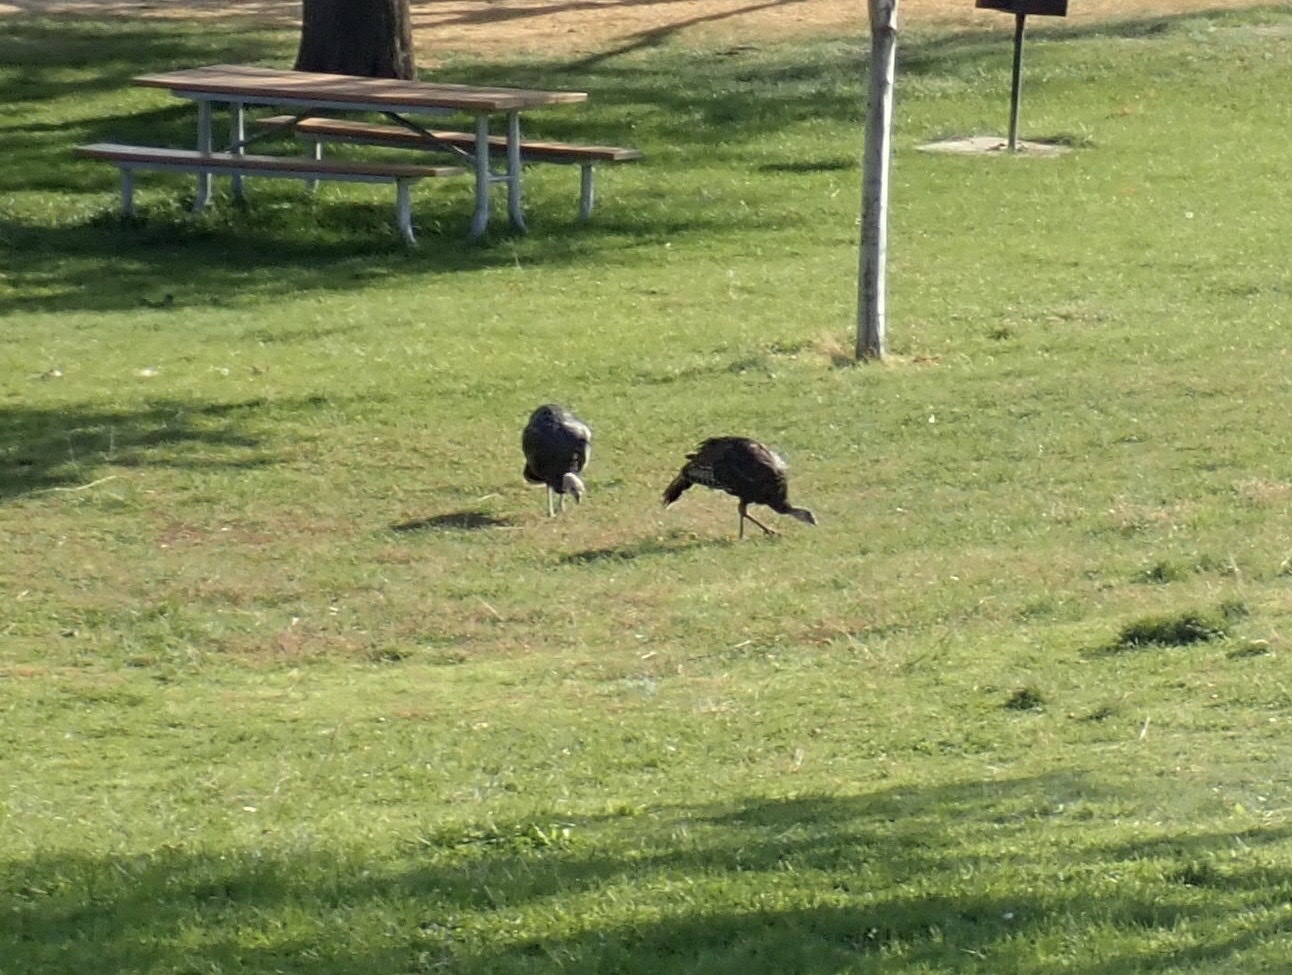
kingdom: Animalia
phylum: Chordata
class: Aves
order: Galliformes
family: Phasianidae
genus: Meleagris
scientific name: Meleagris gallopavo
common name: Wild turkey
